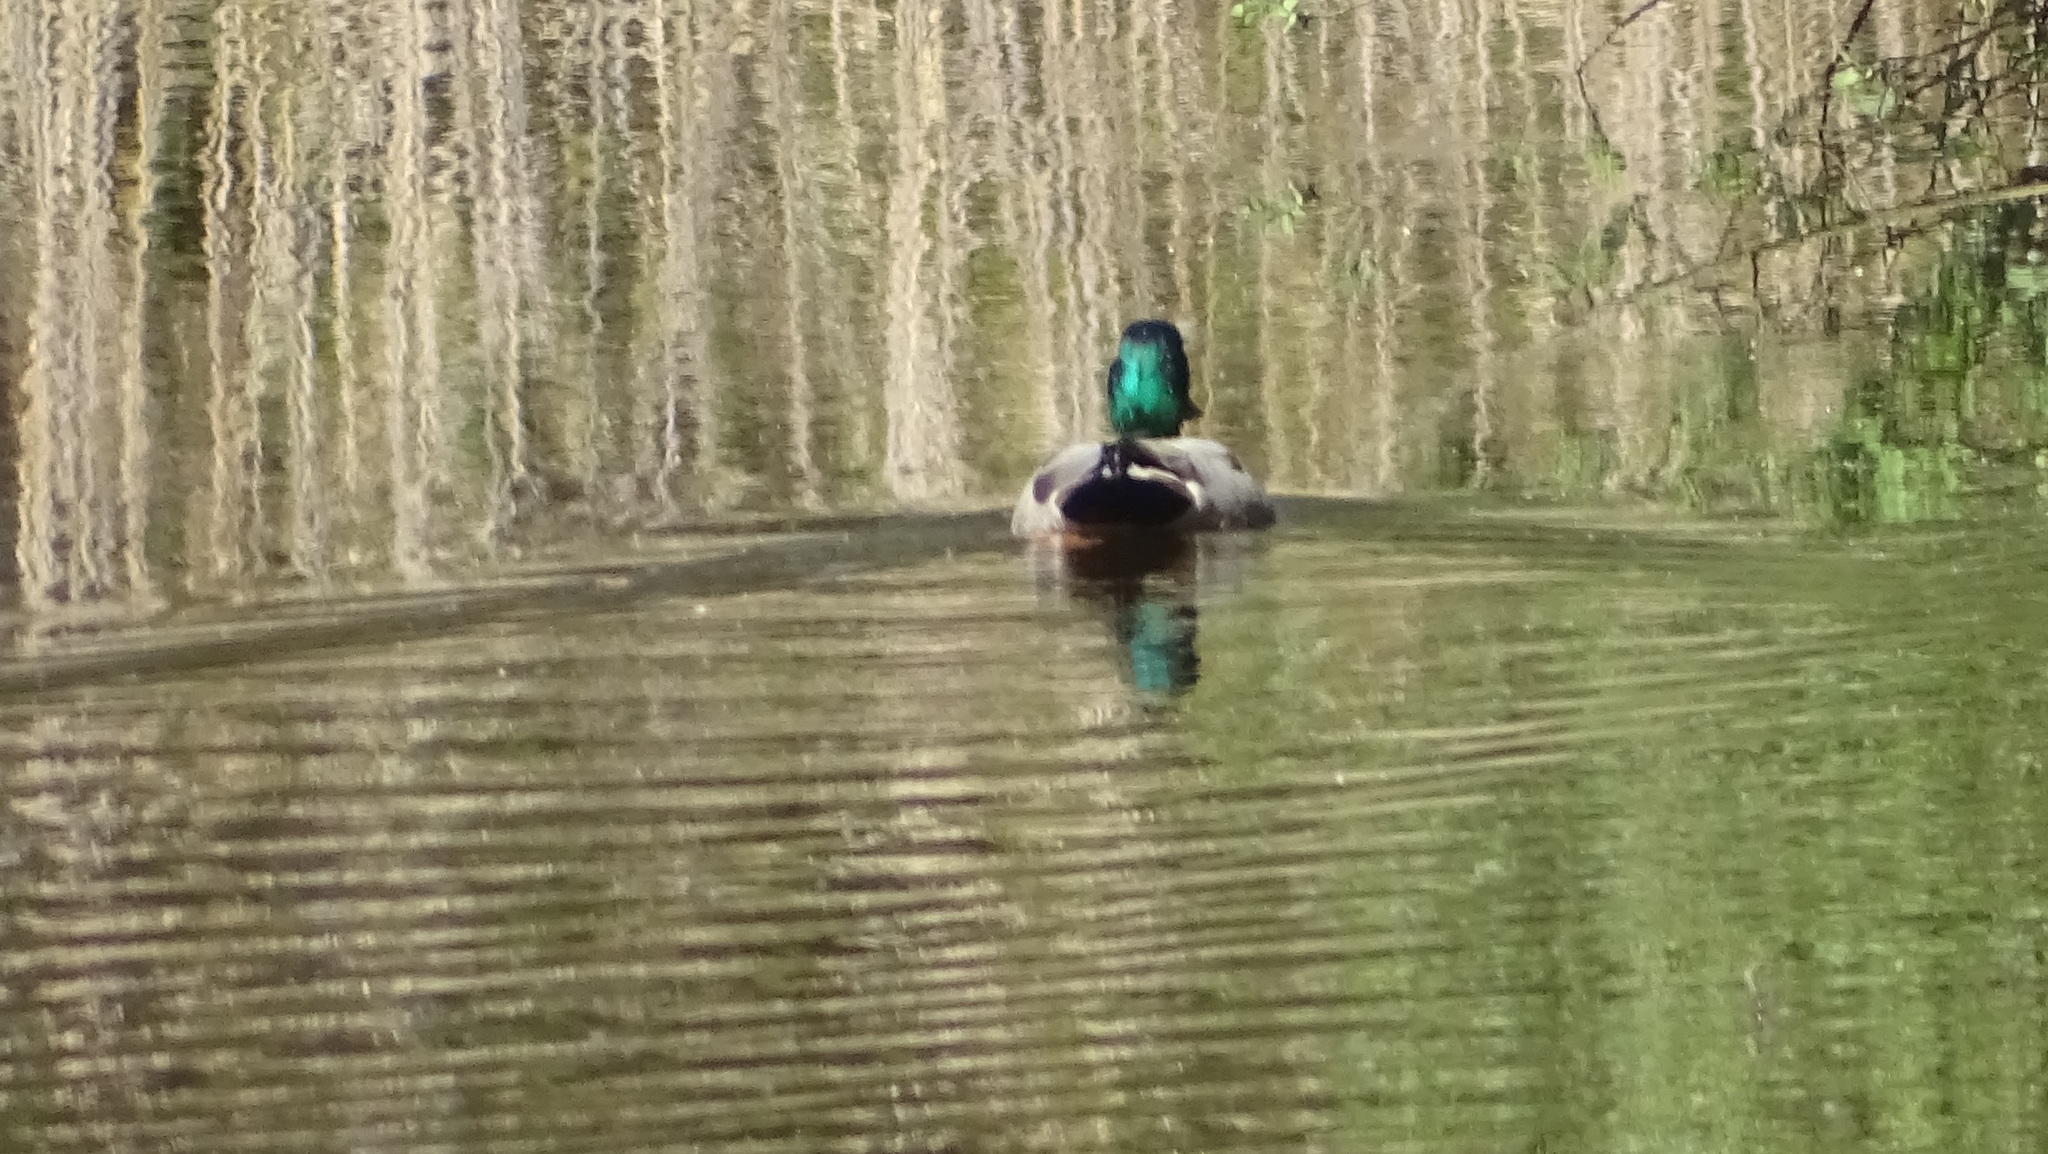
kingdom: Animalia
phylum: Chordata
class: Aves
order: Anseriformes
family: Anatidae
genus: Anas
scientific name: Anas platyrhynchos
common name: Mallard
